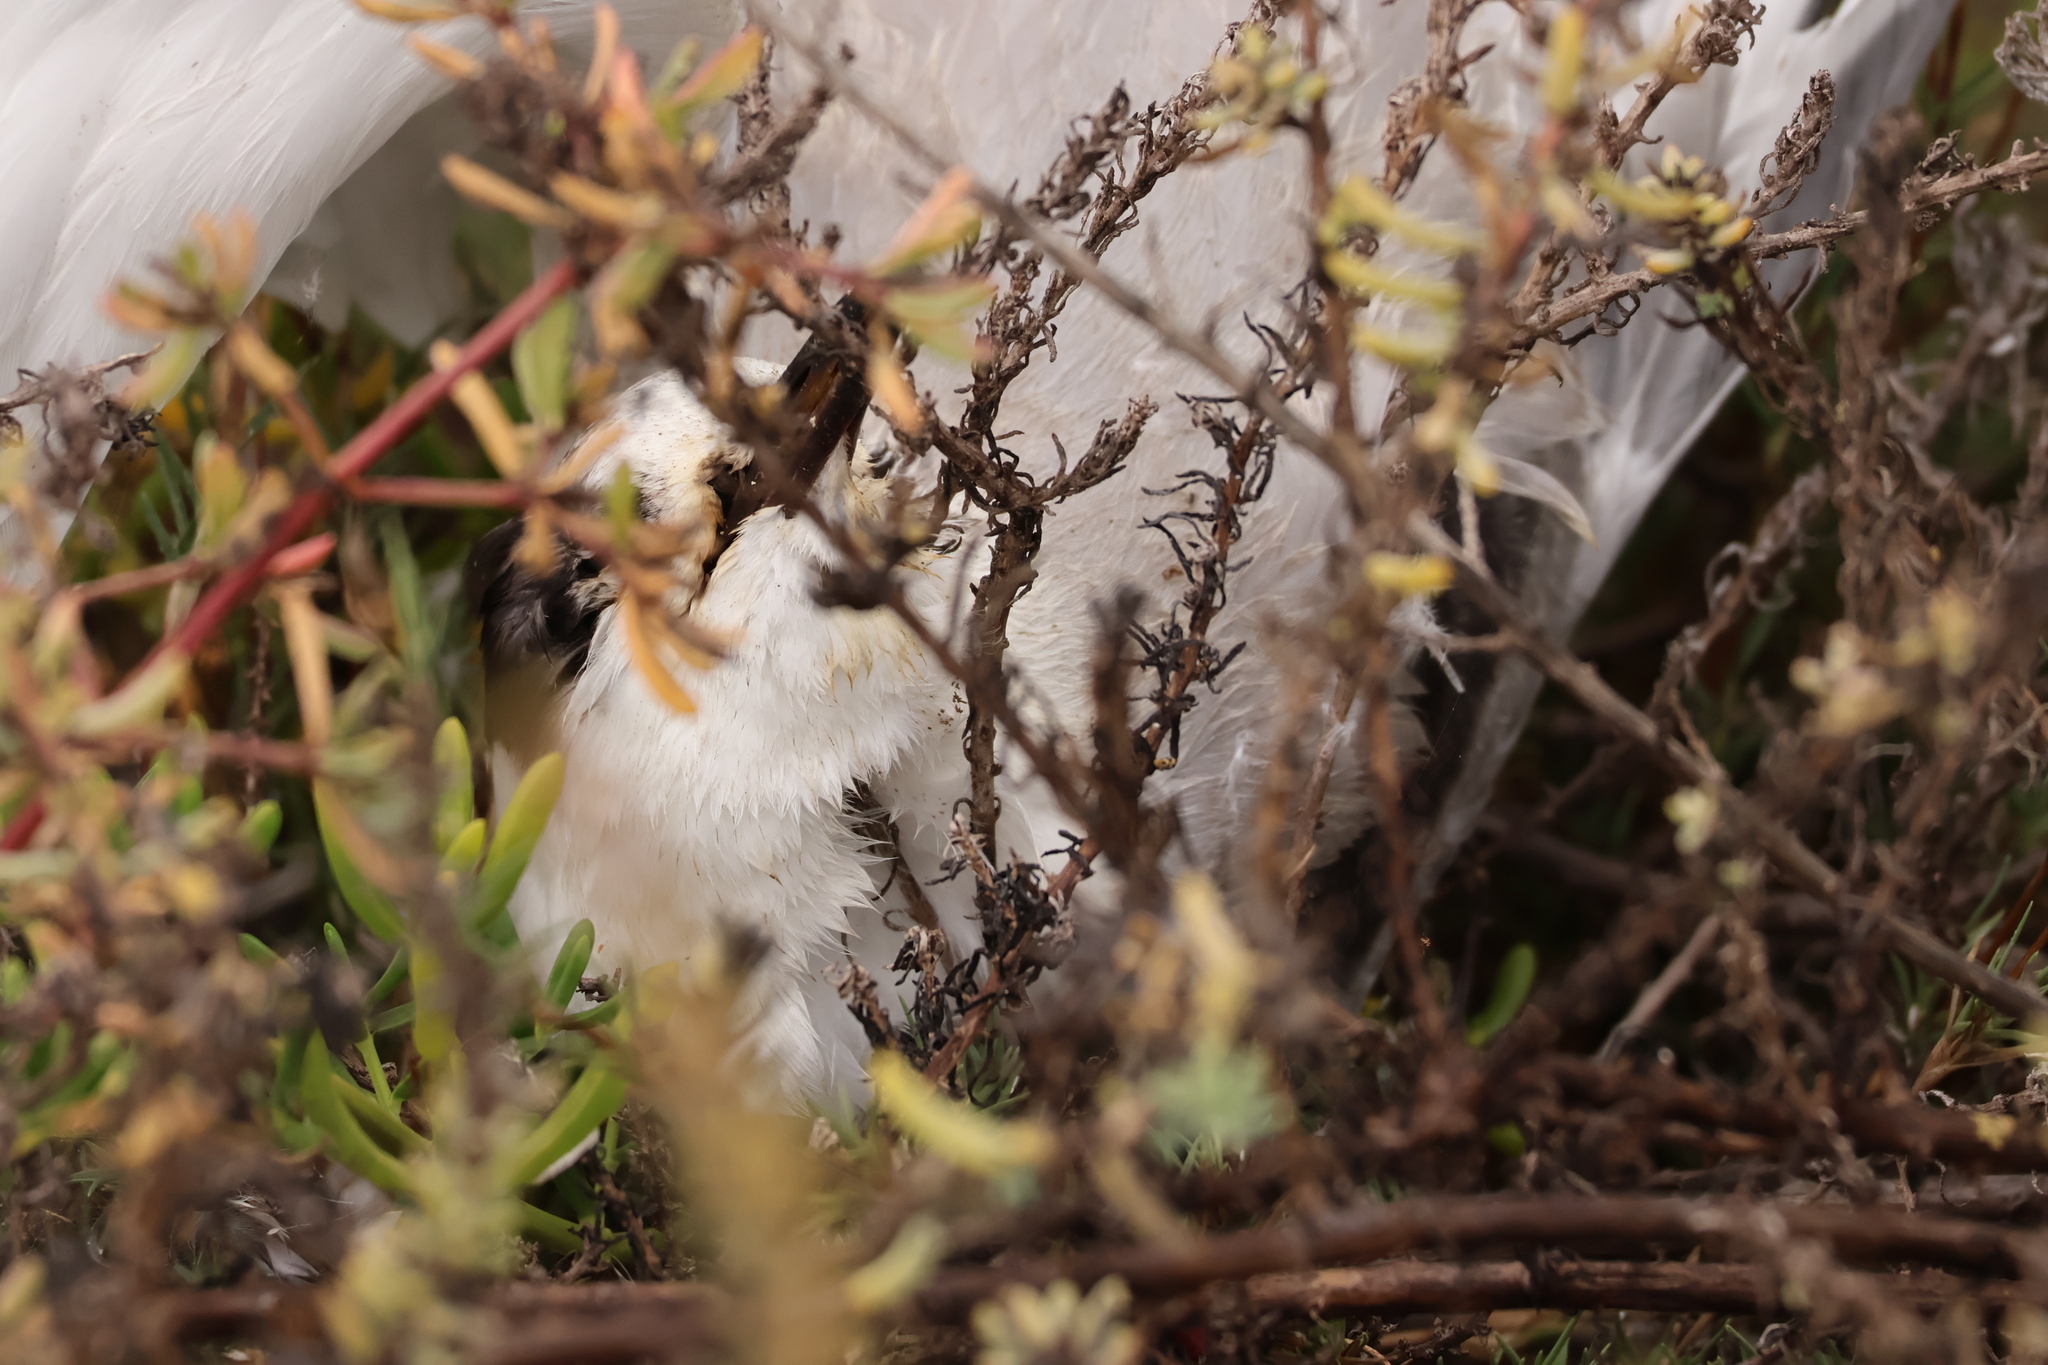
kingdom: Animalia
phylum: Chordata
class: Aves
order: Charadriiformes
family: Laridae
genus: Sterna
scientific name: Sterna hirundo
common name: Common tern
